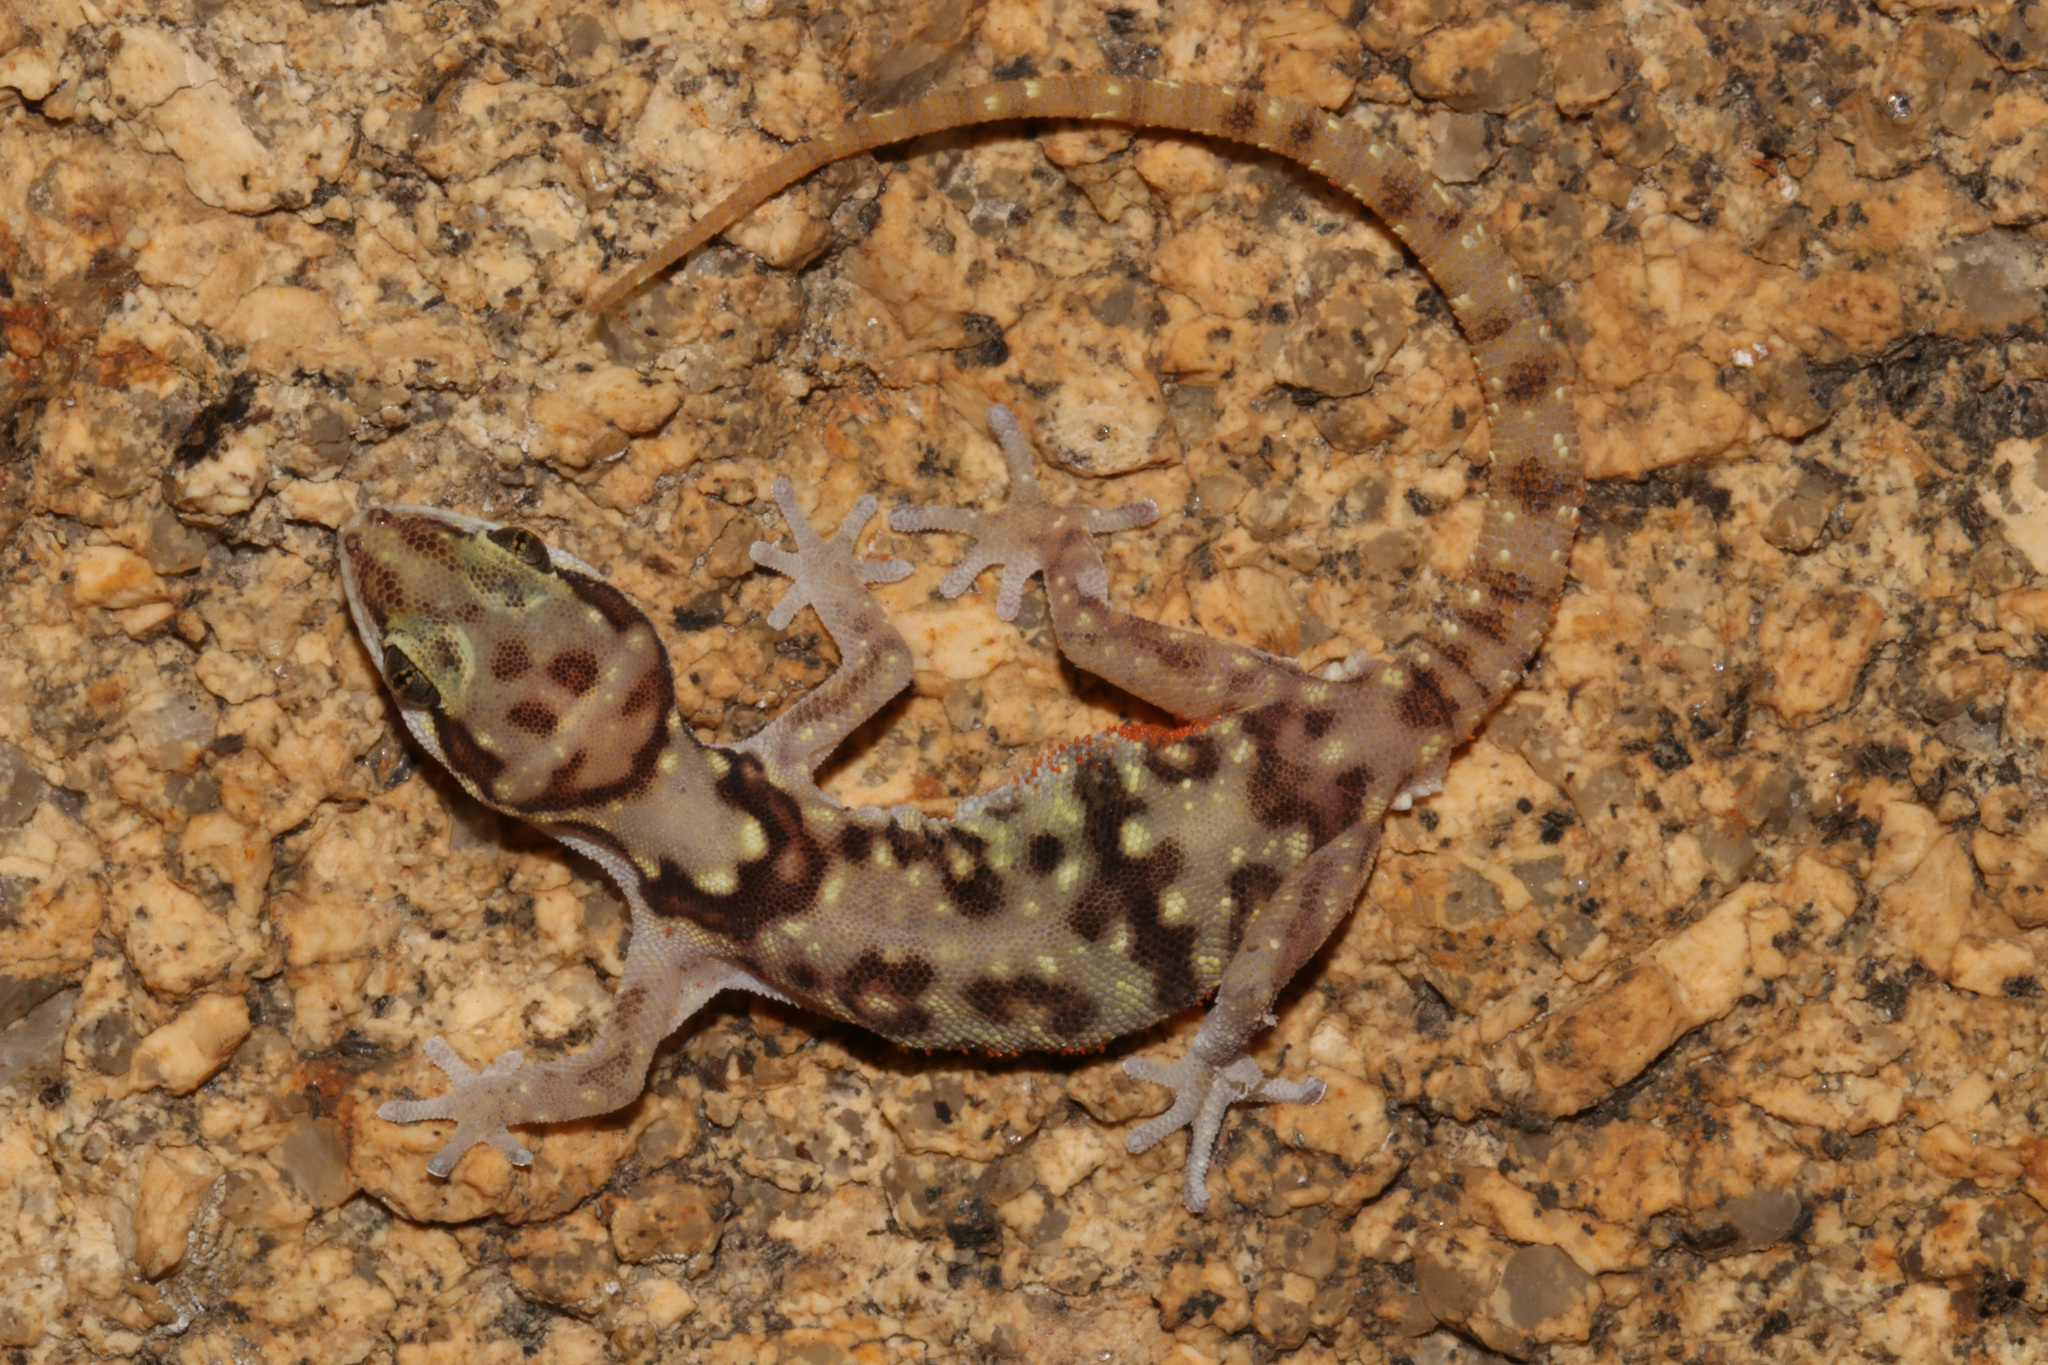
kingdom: Animalia
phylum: Chordata
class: Squamata
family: Gekkonidae
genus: Pachydactylus
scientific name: Pachydactylus bicolor
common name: Two-colored thick-toed gecko
